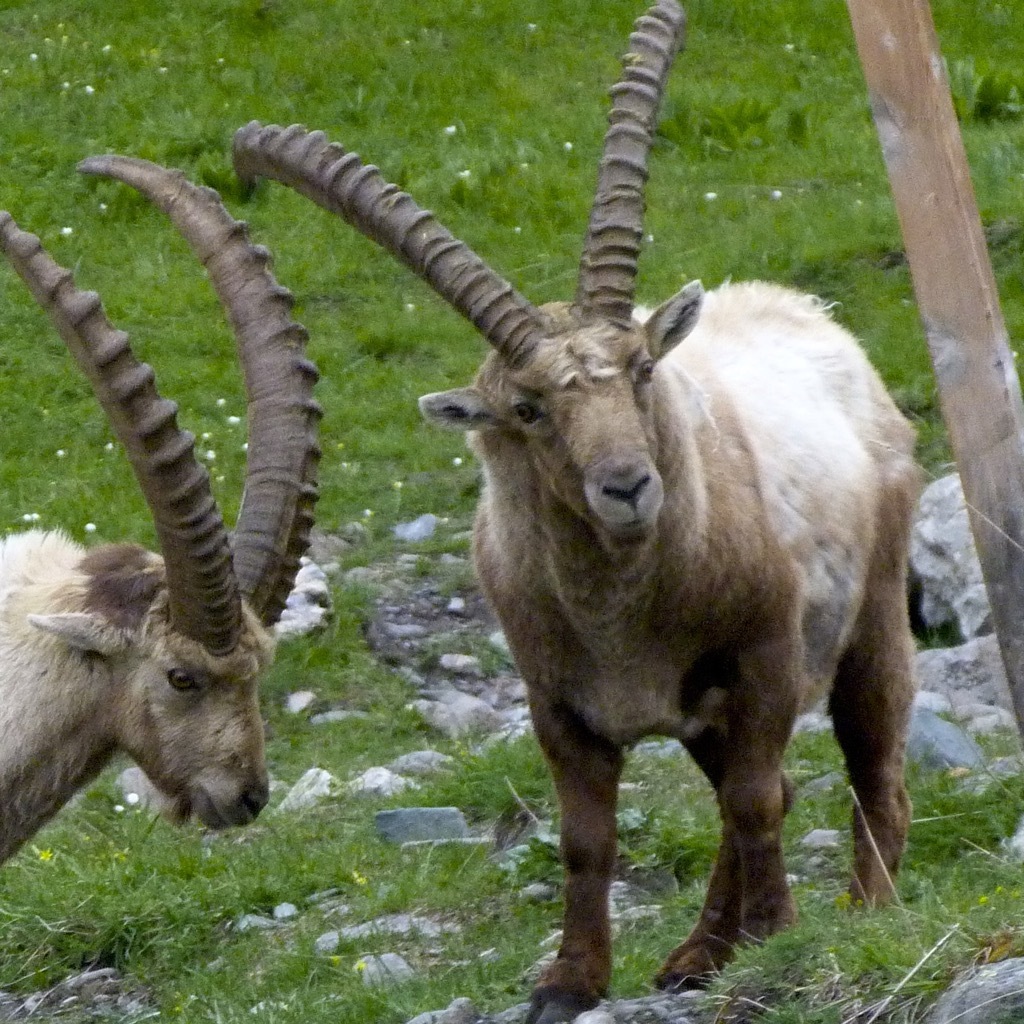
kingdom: Animalia
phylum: Chordata
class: Mammalia
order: Artiodactyla
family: Bovidae
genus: Capra
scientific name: Capra ibex
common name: Alpine ibex
